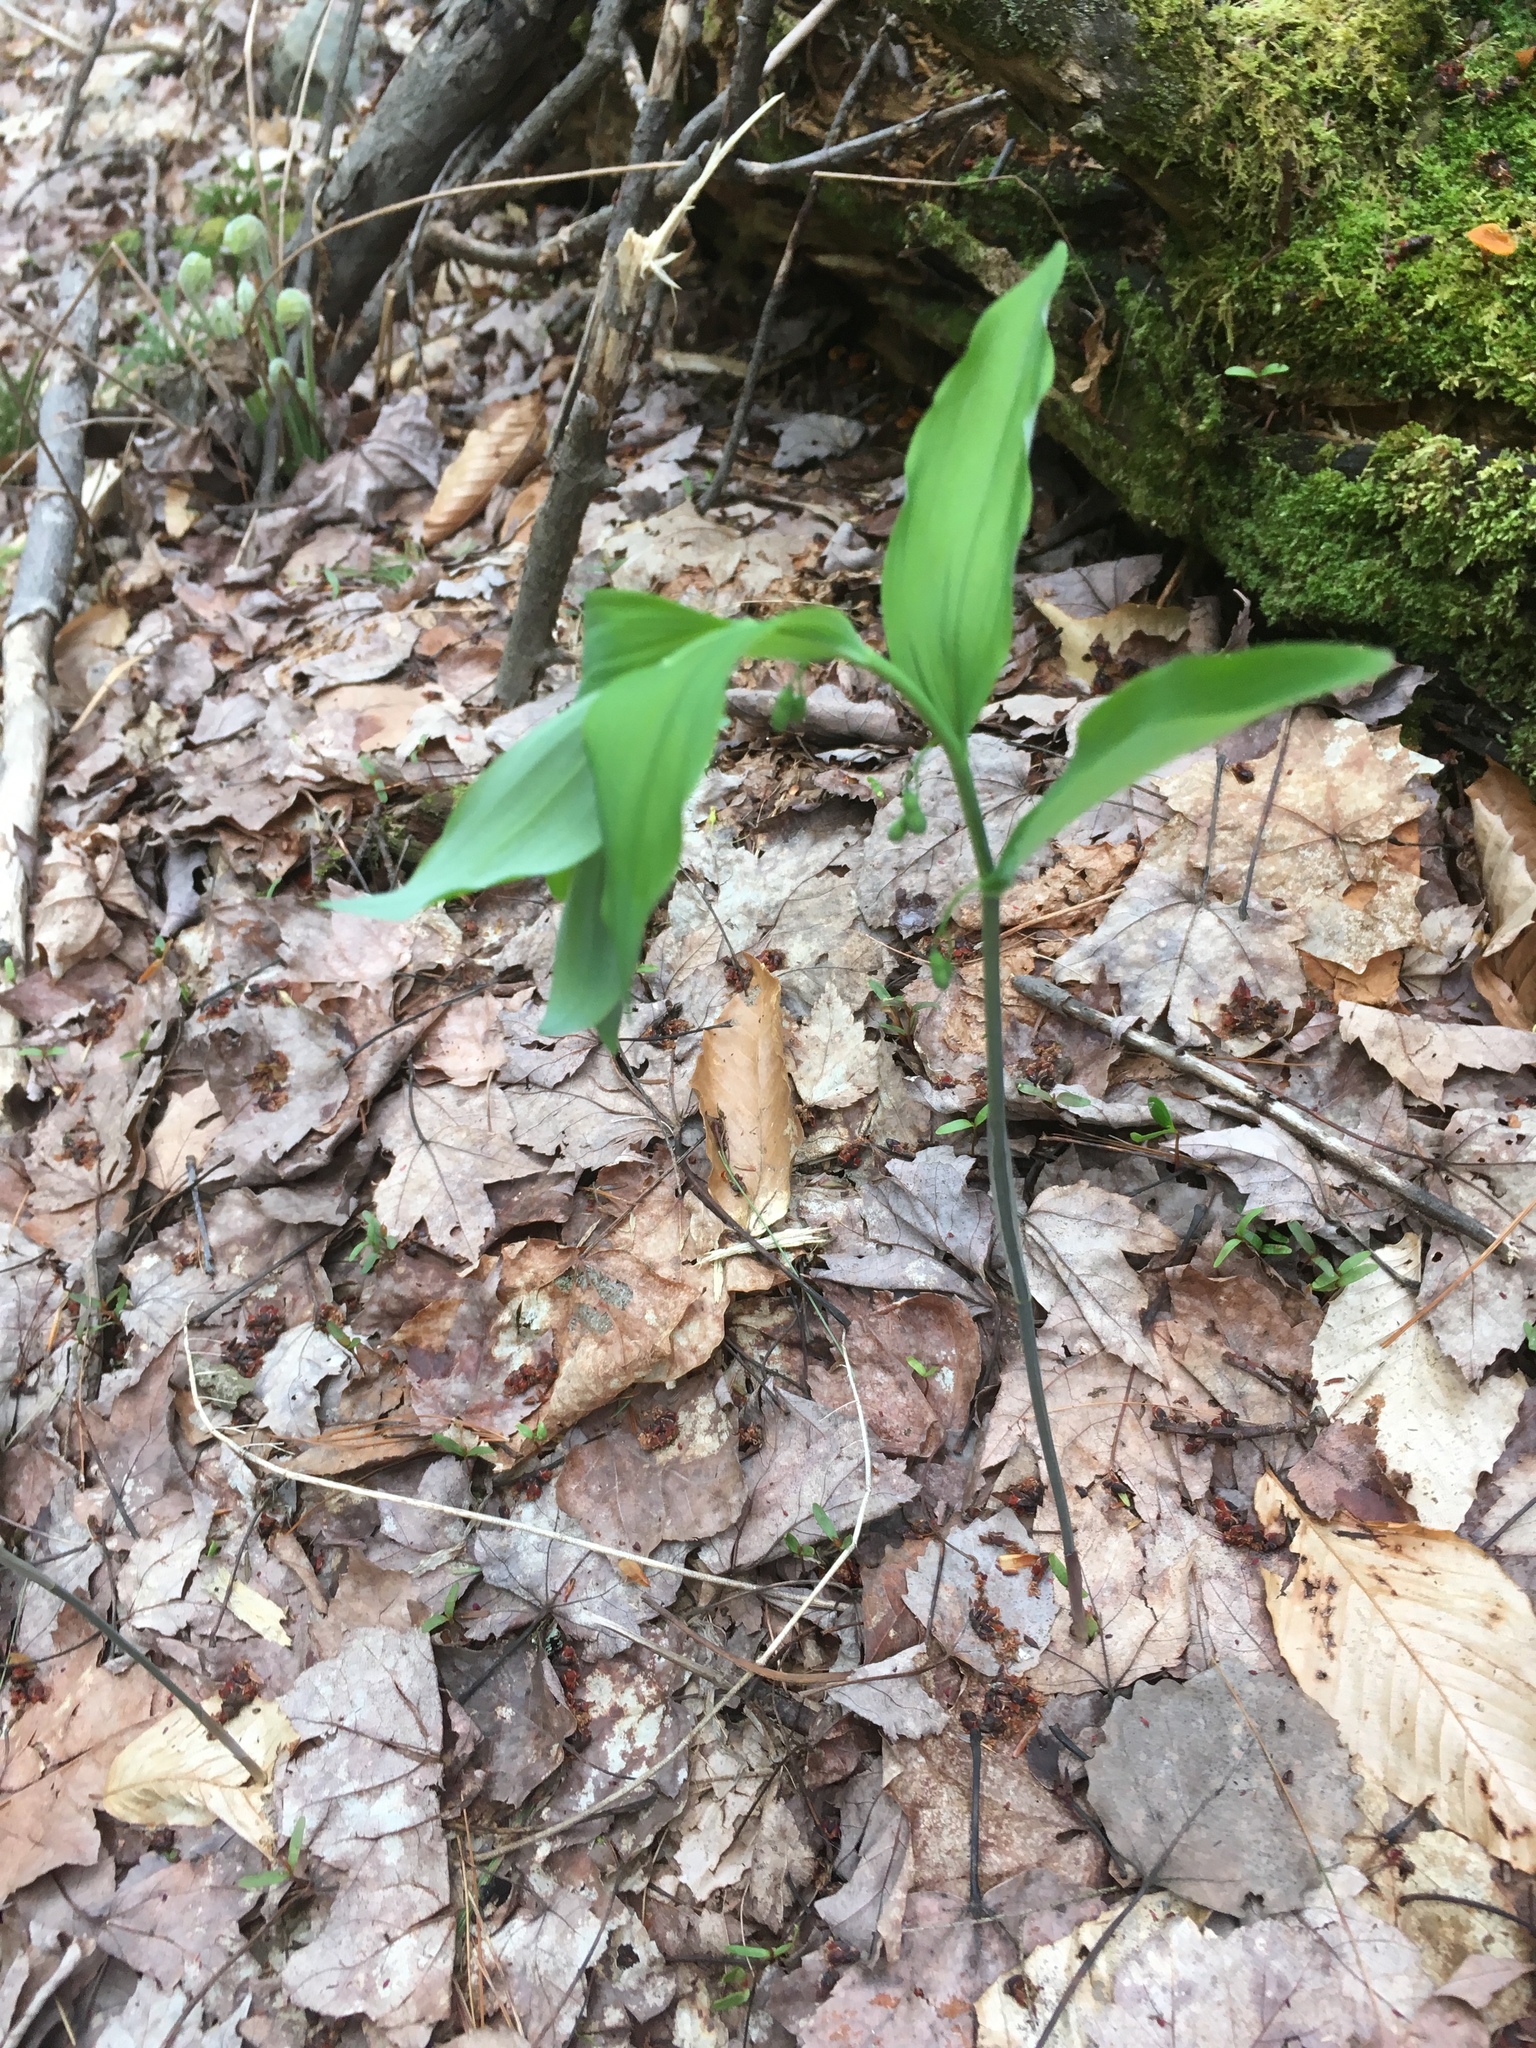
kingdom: Plantae
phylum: Tracheophyta
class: Liliopsida
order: Asparagales
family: Asparagaceae
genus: Polygonatum
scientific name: Polygonatum pubescens
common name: Downy solomon's seal
